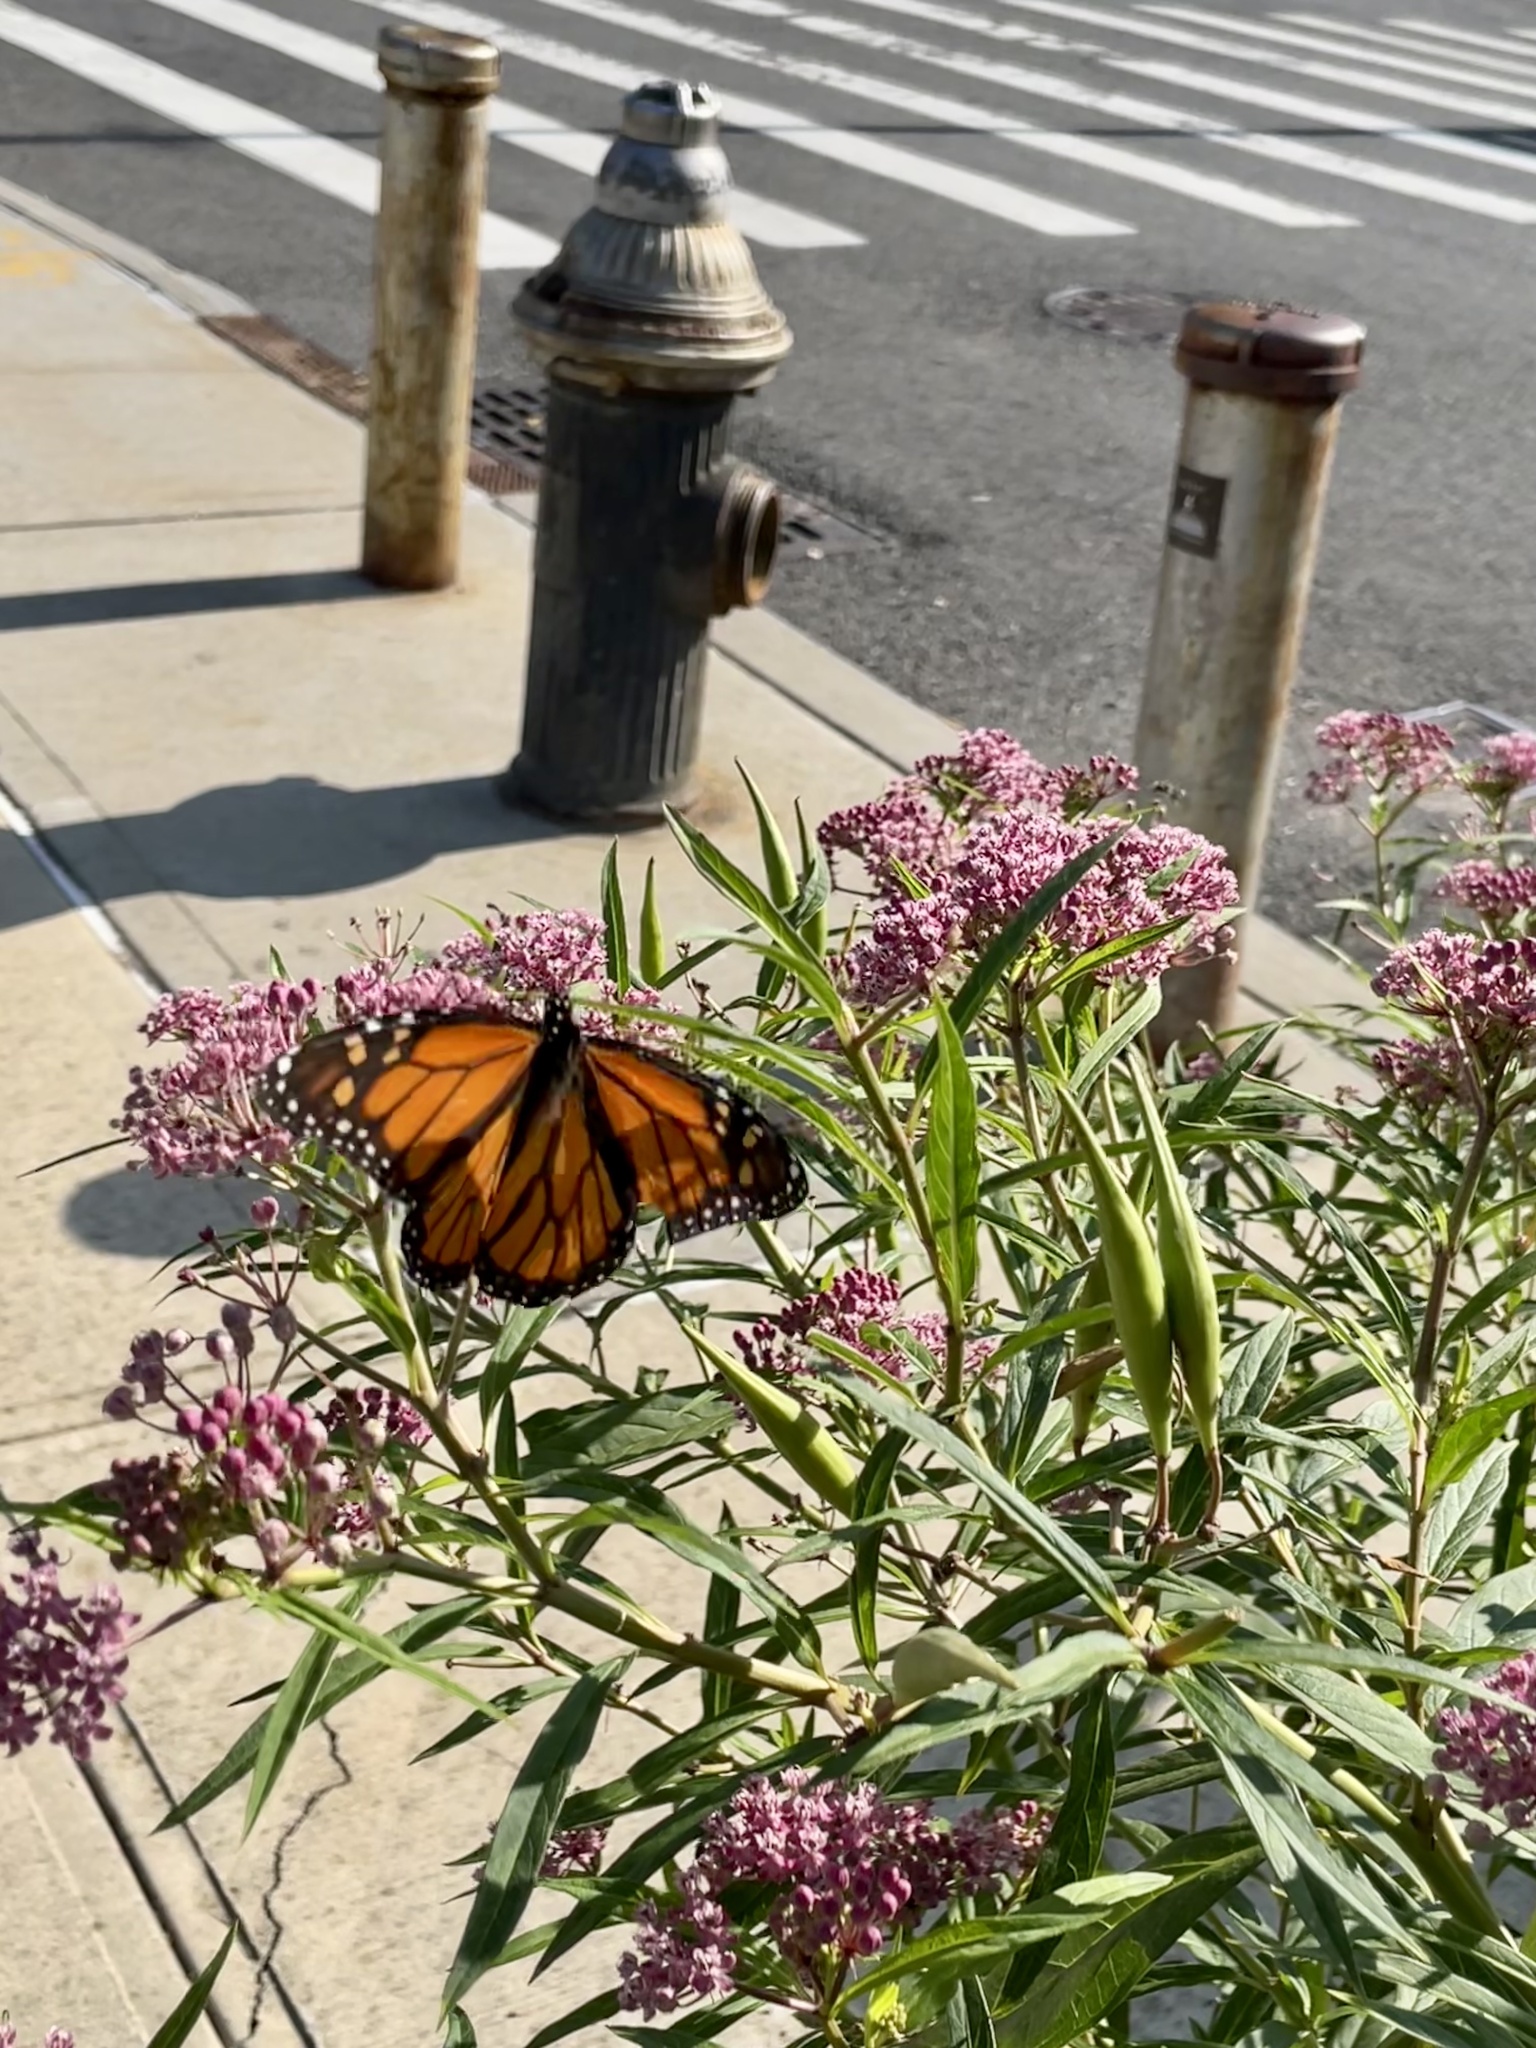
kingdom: Animalia
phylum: Arthropoda
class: Insecta
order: Lepidoptera
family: Nymphalidae
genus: Danaus
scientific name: Danaus plexippus
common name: Monarch
